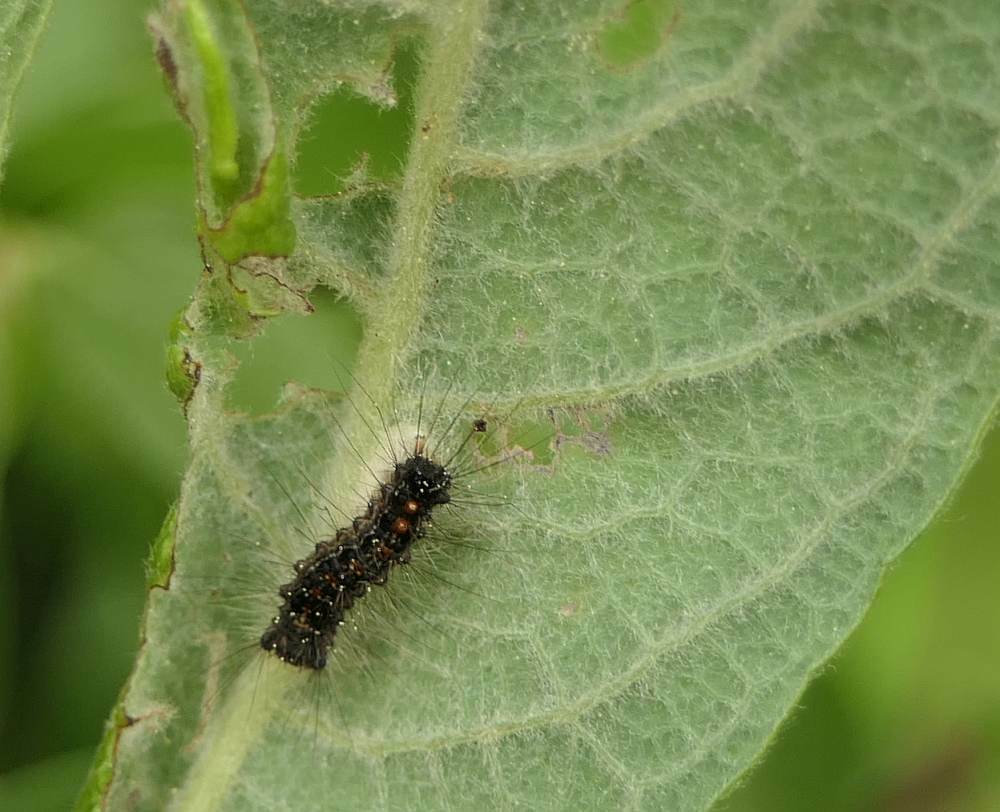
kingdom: Animalia
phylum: Arthropoda
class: Insecta
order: Lepidoptera
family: Erebidae
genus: Lymantria
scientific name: Lymantria dispar
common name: Gypsy moth
